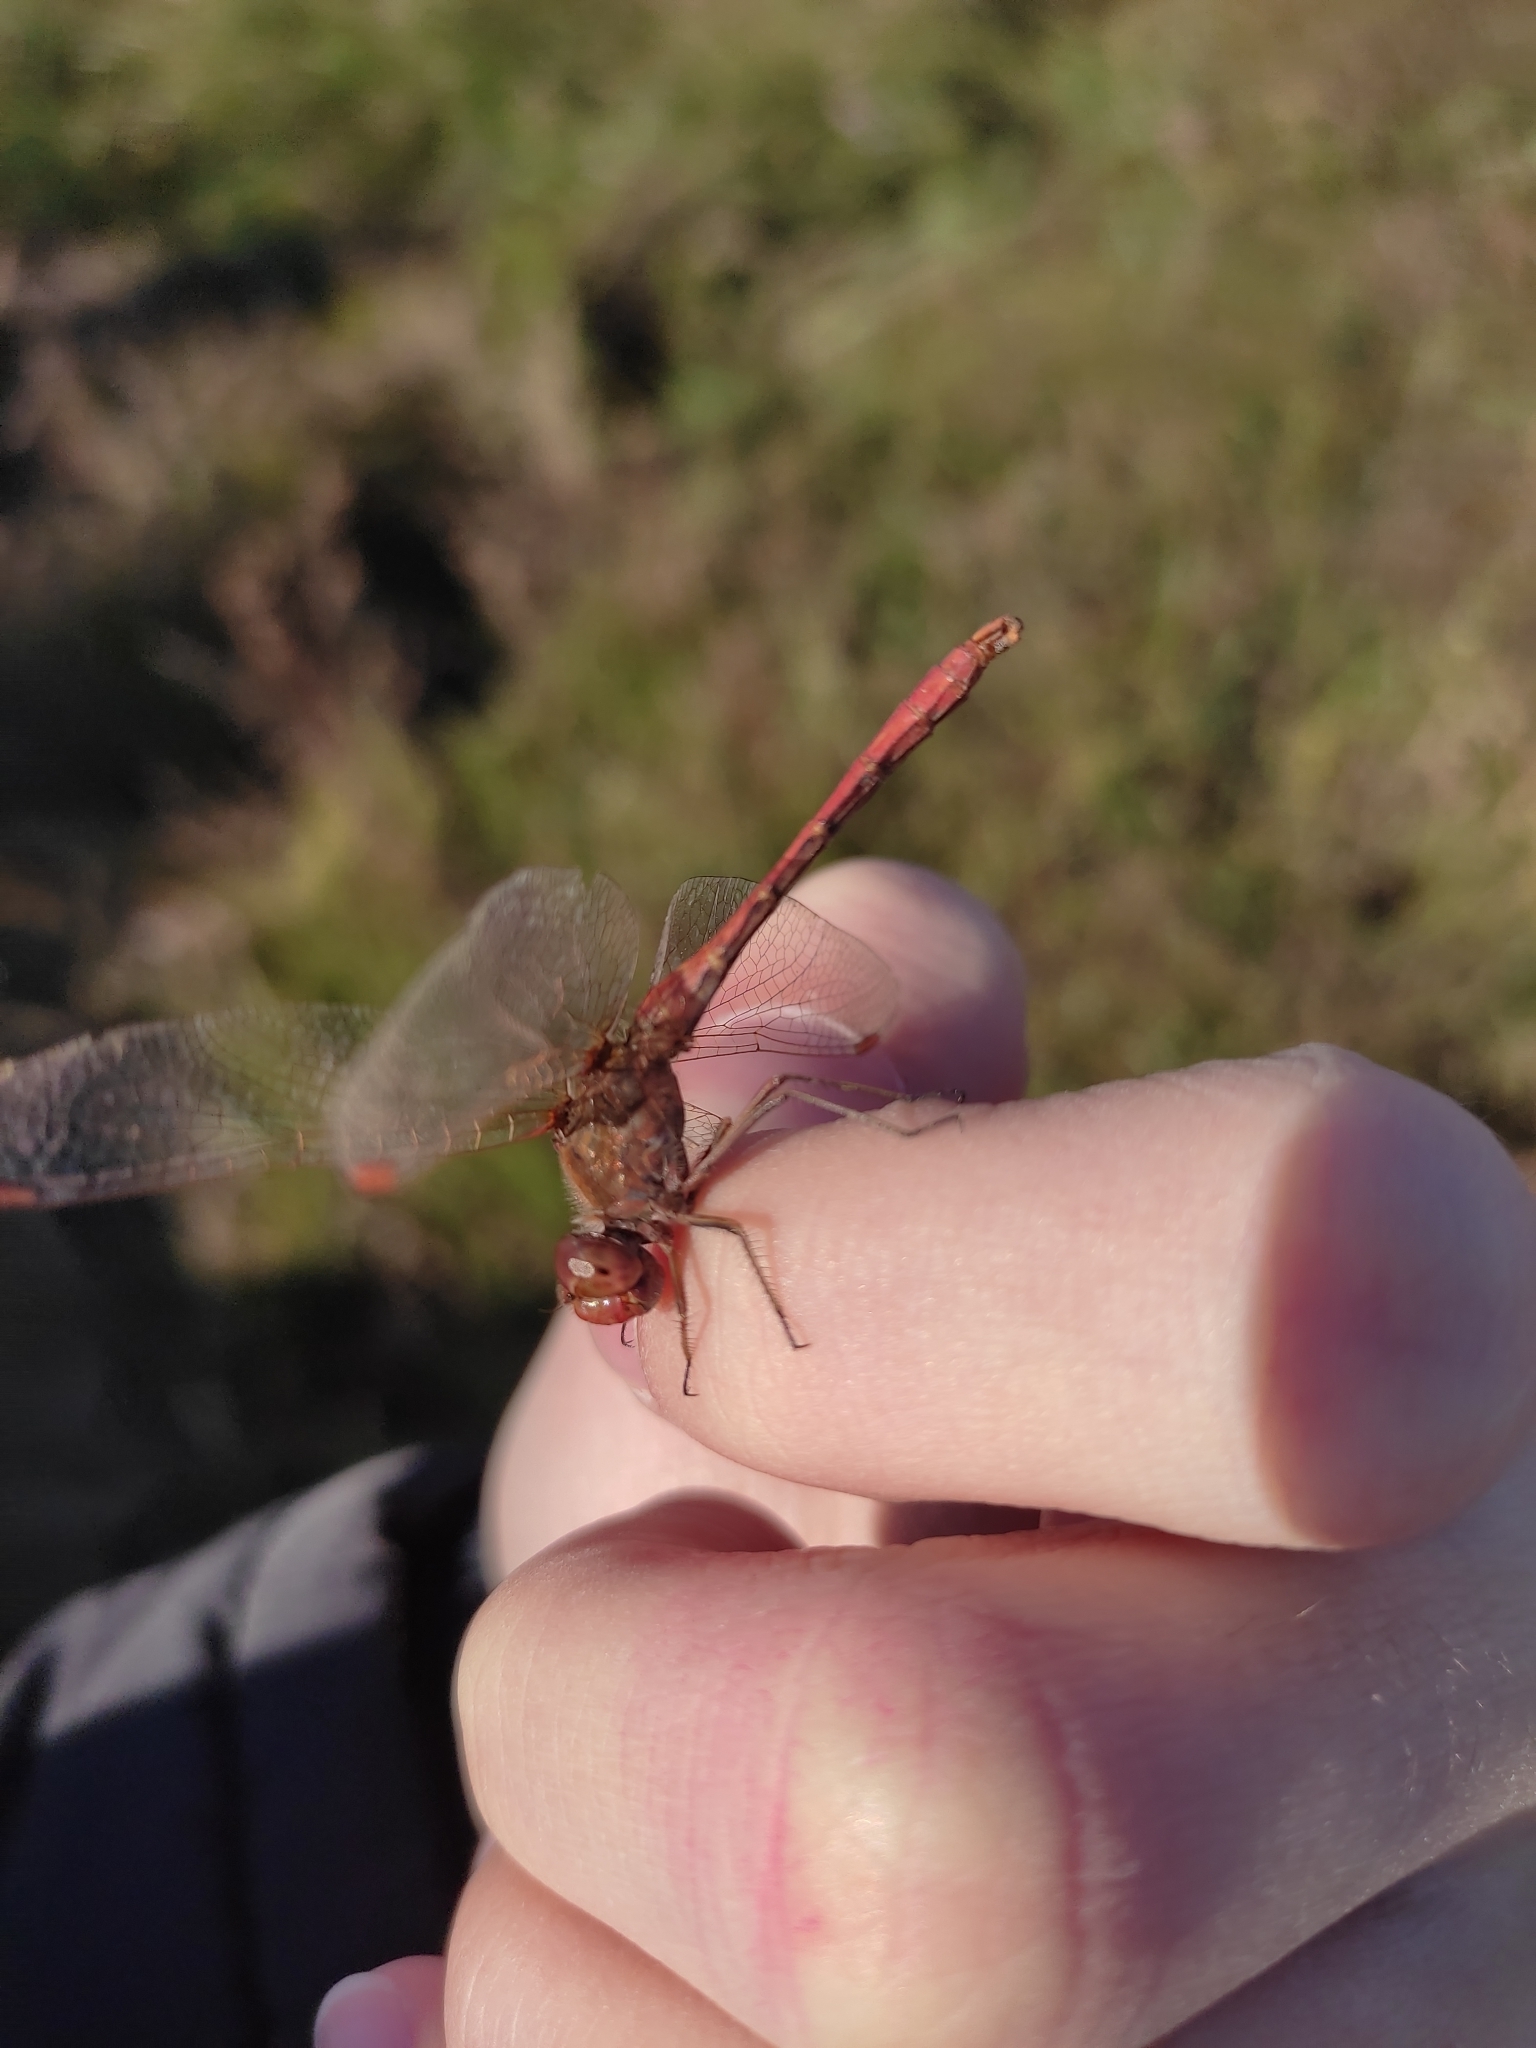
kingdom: Animalia
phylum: Arthropoda
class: Insecta
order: Odonata
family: Libellulidae
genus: Sympetrum
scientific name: Sympetrum meridionale
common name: Southern darter
